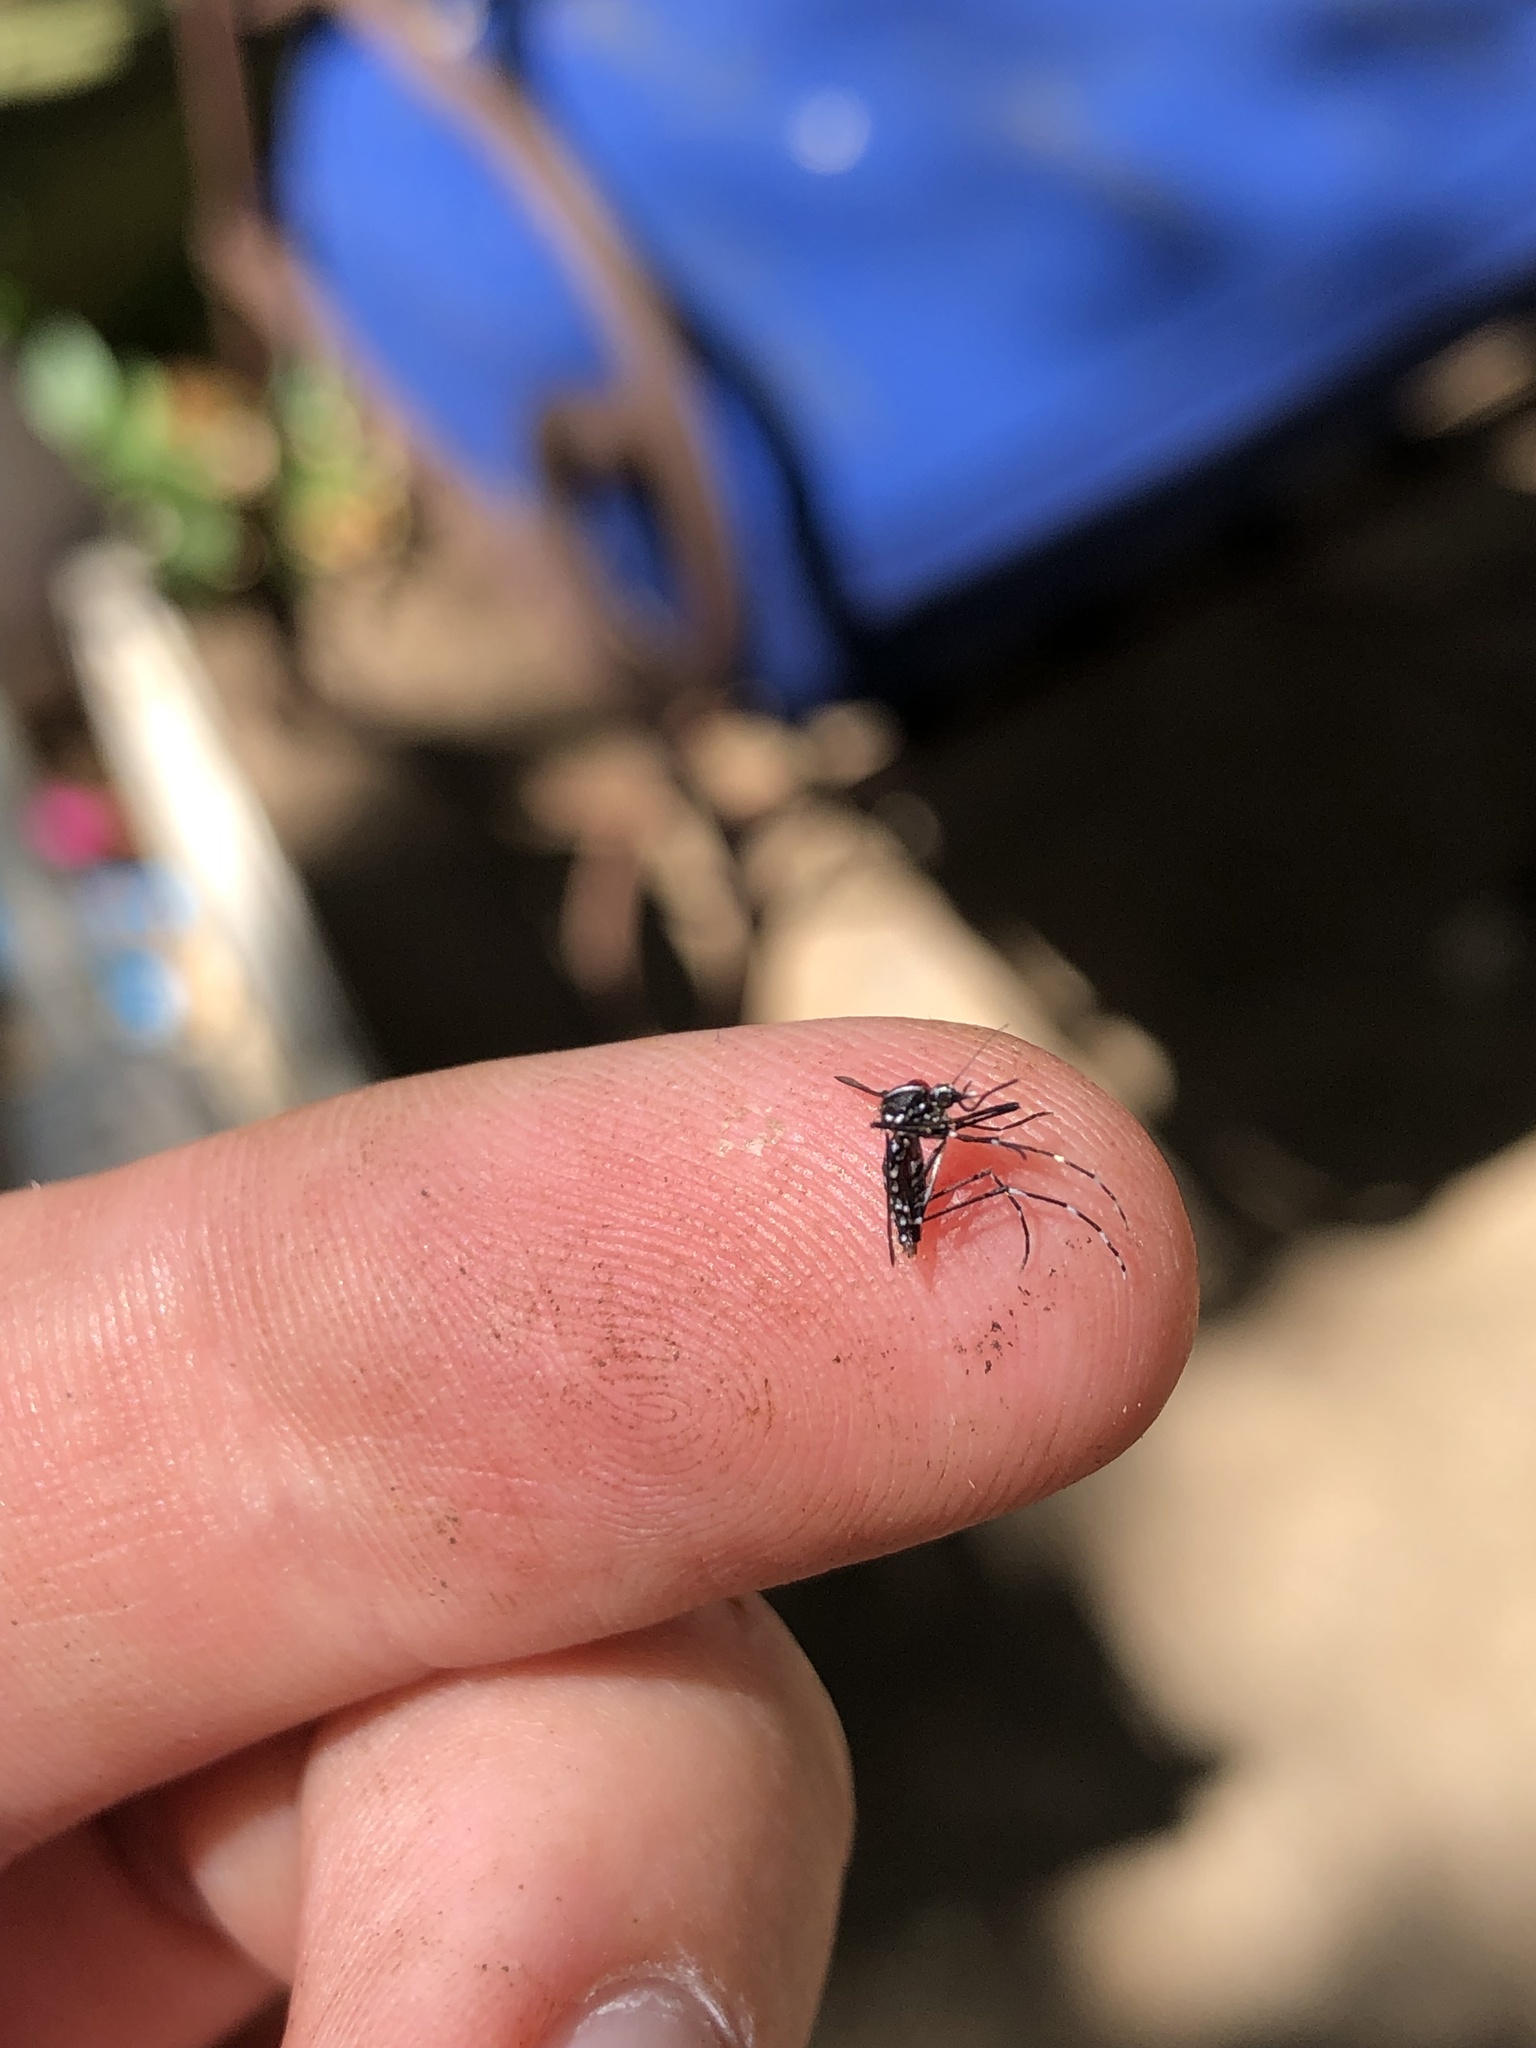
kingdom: Animalia
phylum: Arthropoda
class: Insecta
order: Diptera
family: Culicidae
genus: Aedes
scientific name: Aedes albopictus
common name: Tiger mosquito
